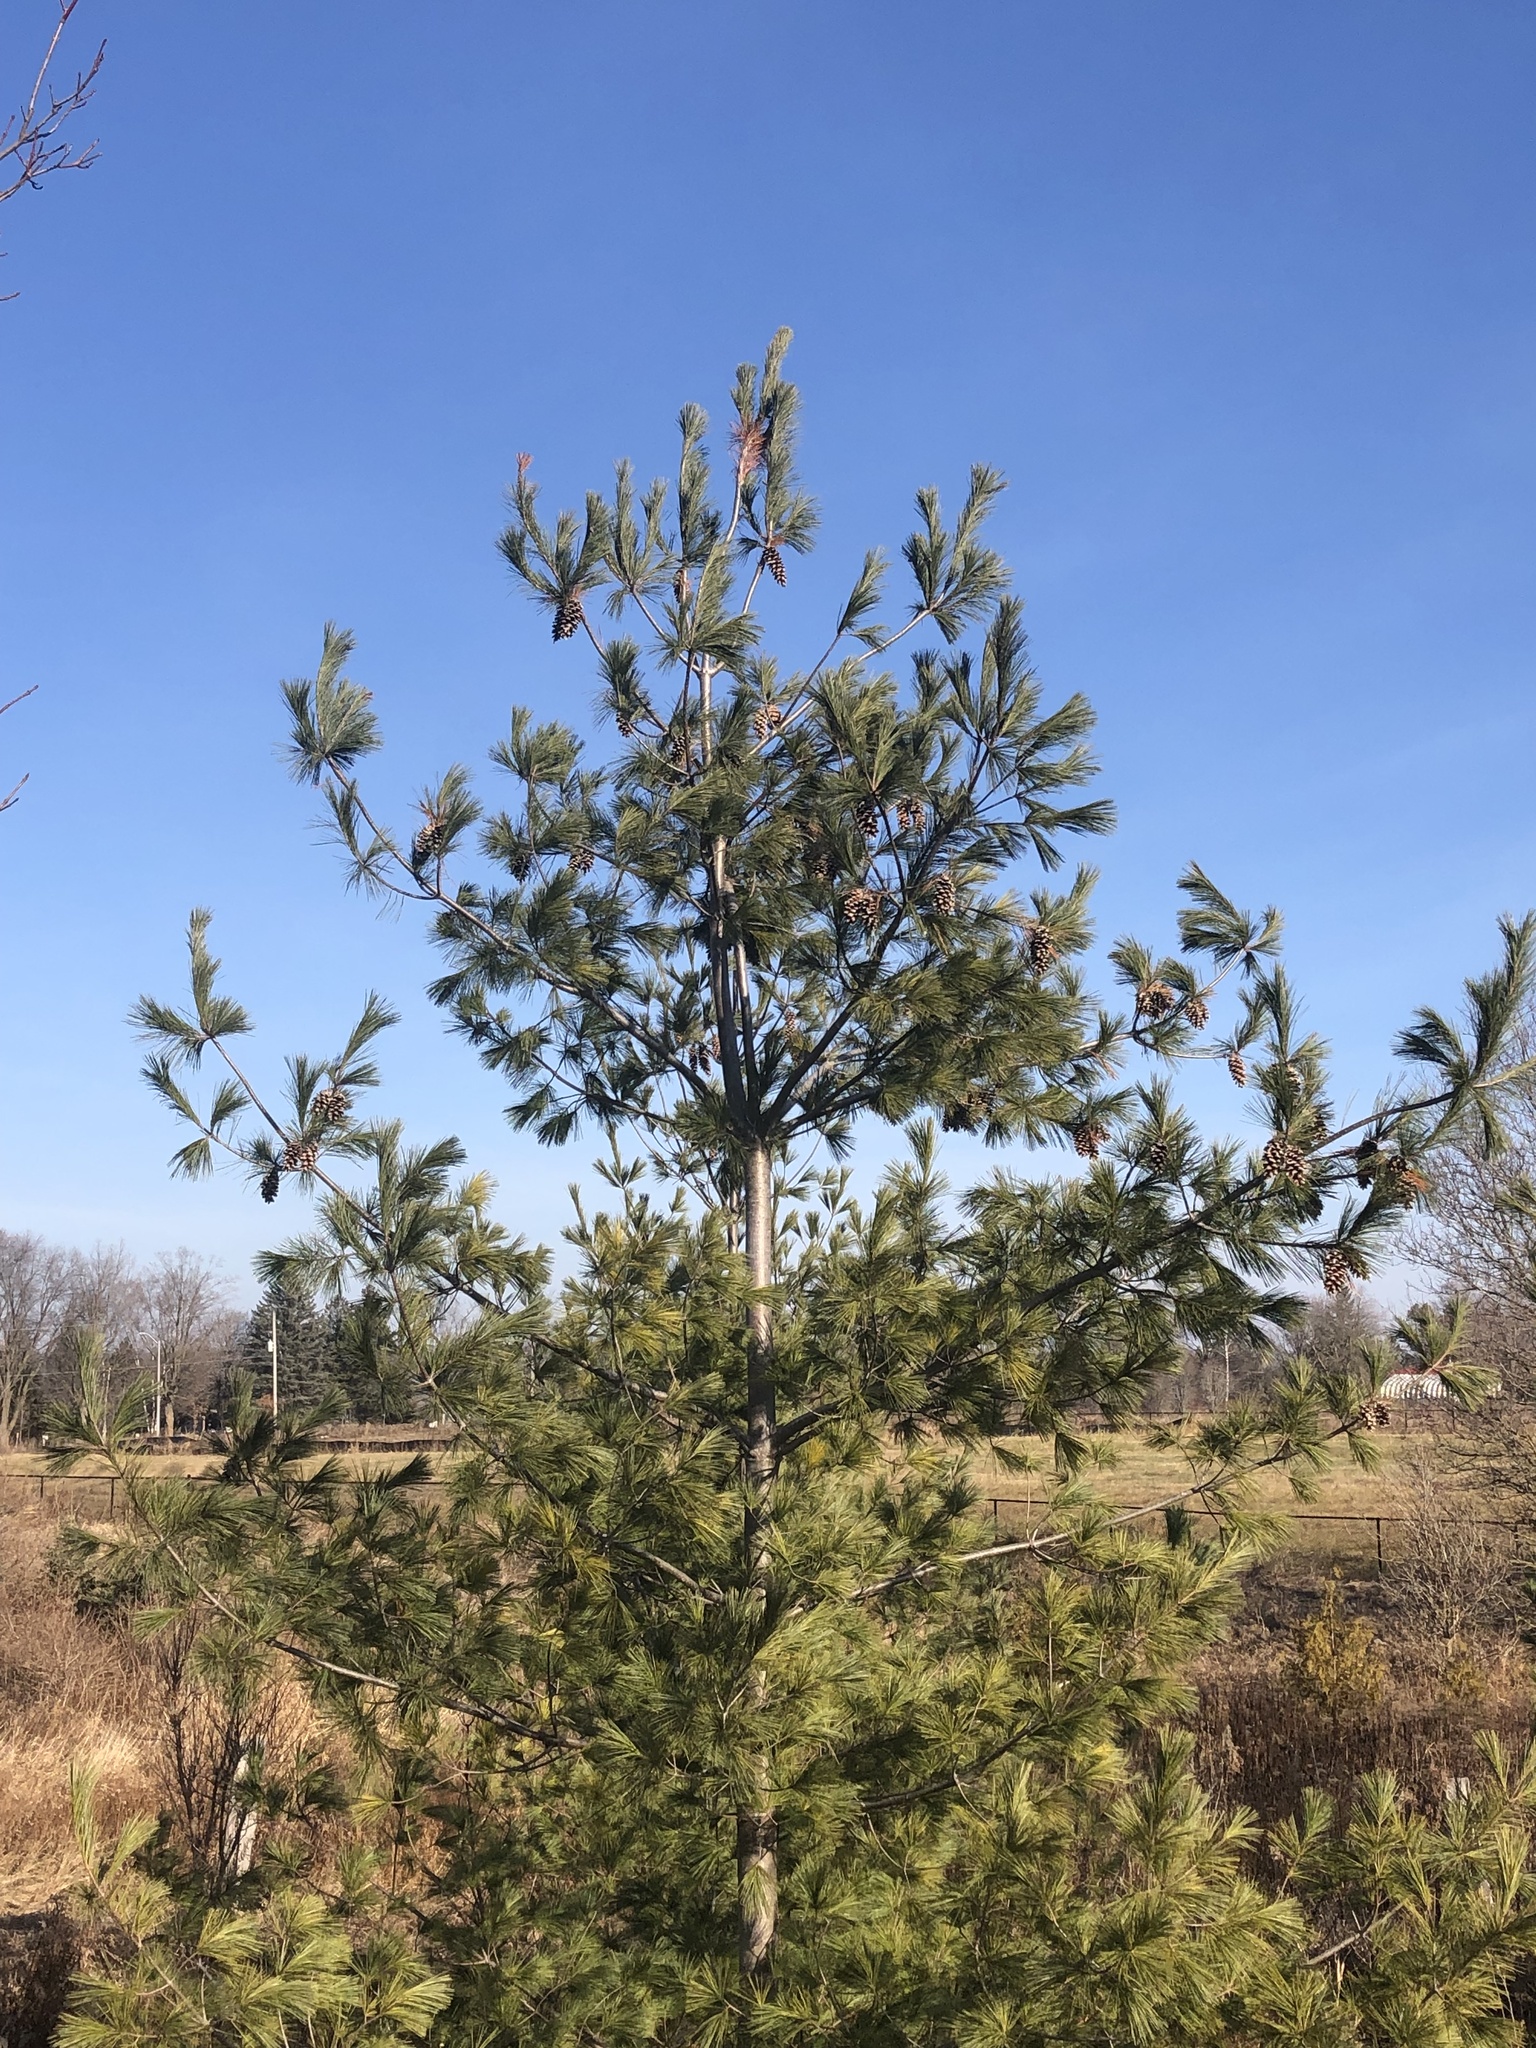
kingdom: Plantae
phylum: Tracheophyta
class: Pinopsida
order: Pinales
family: Pinaceae
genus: Pinus
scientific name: Pinus strobus
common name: Weymouth pine
